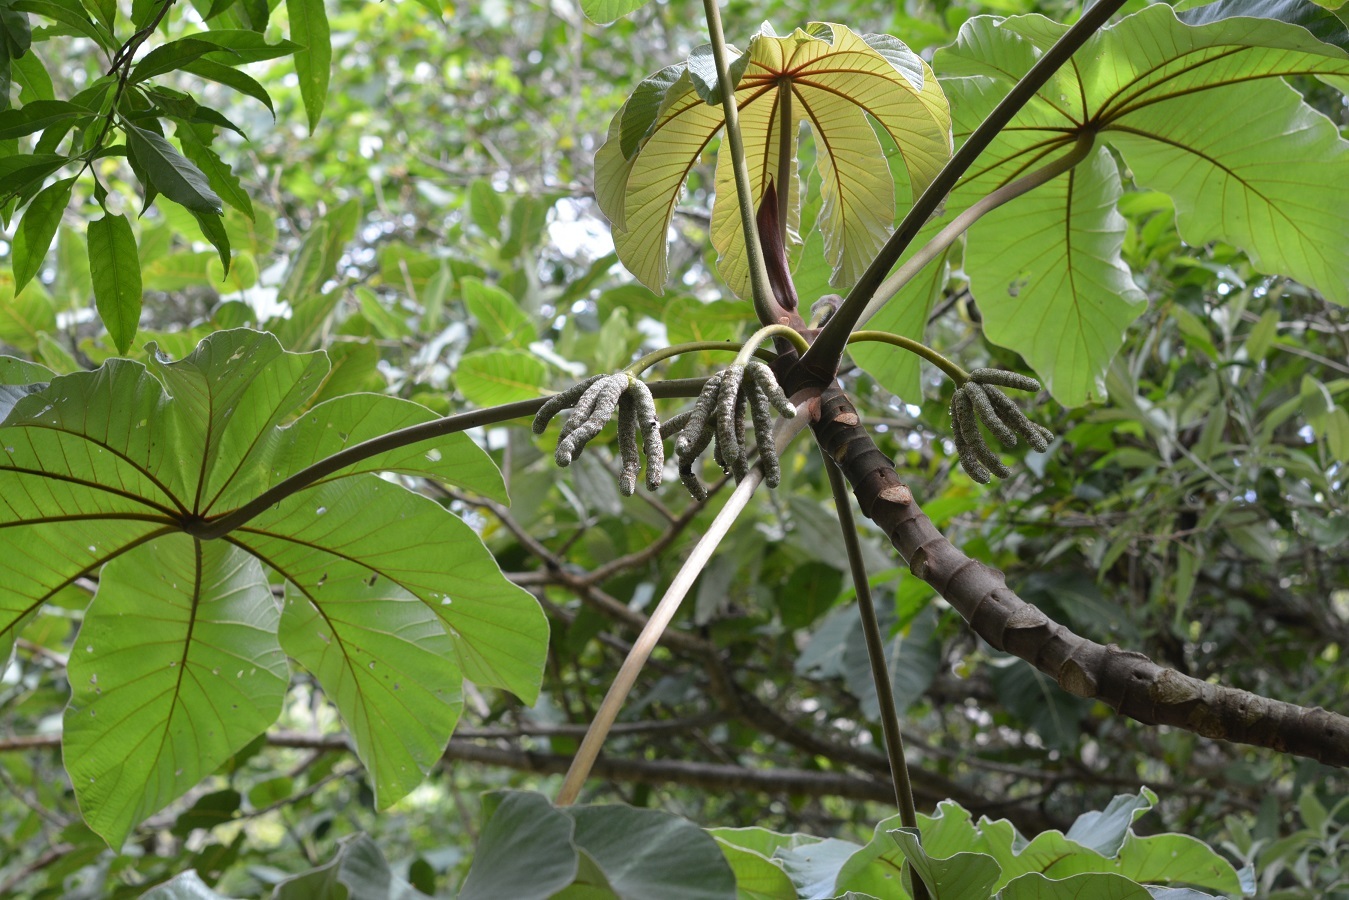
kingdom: Plantae
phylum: Tracheophyta
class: Magnoliopsida
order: Rosales
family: Urticaceae
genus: Cecropia
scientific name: Cecropia peltata
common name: Trumpet-tree
